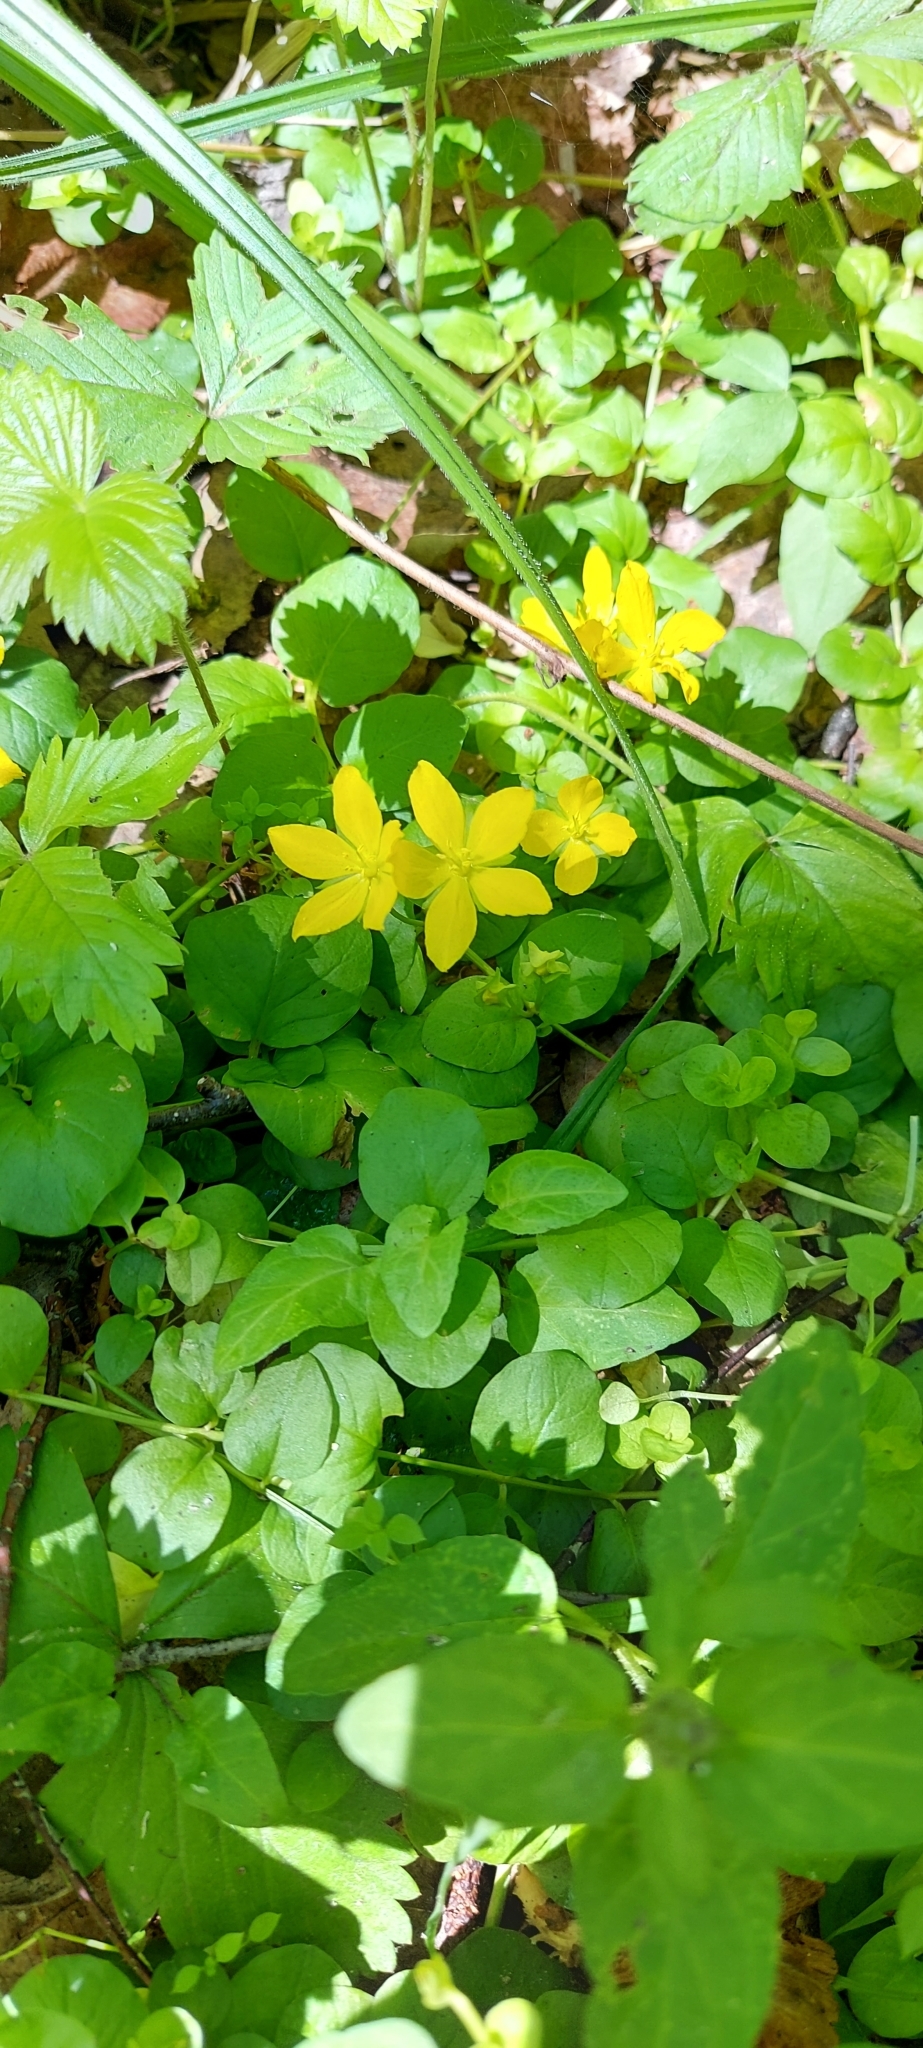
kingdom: Plantae
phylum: Tracheophyta
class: Magnoliopsida
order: Ericales
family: Primulaceae
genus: Lysimachia
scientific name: Lysimachia nummularia
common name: Moneywort
